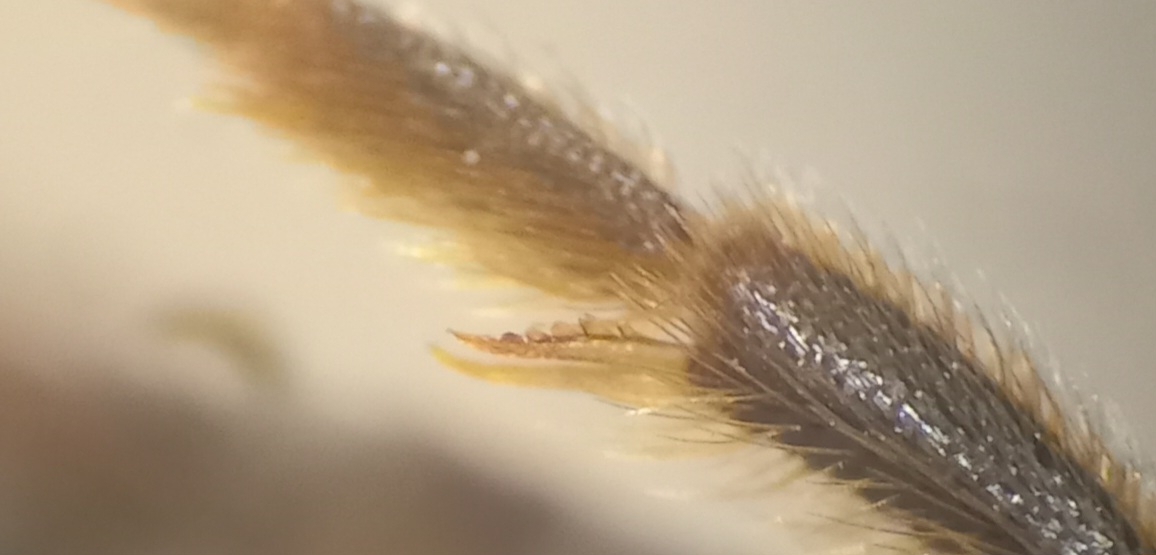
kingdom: Animalia
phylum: Arthropoda
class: Insecta
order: Hymenoptera
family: Halictidae
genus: Halictus
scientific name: Halictus tumulorum
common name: Bronze furrow bee
